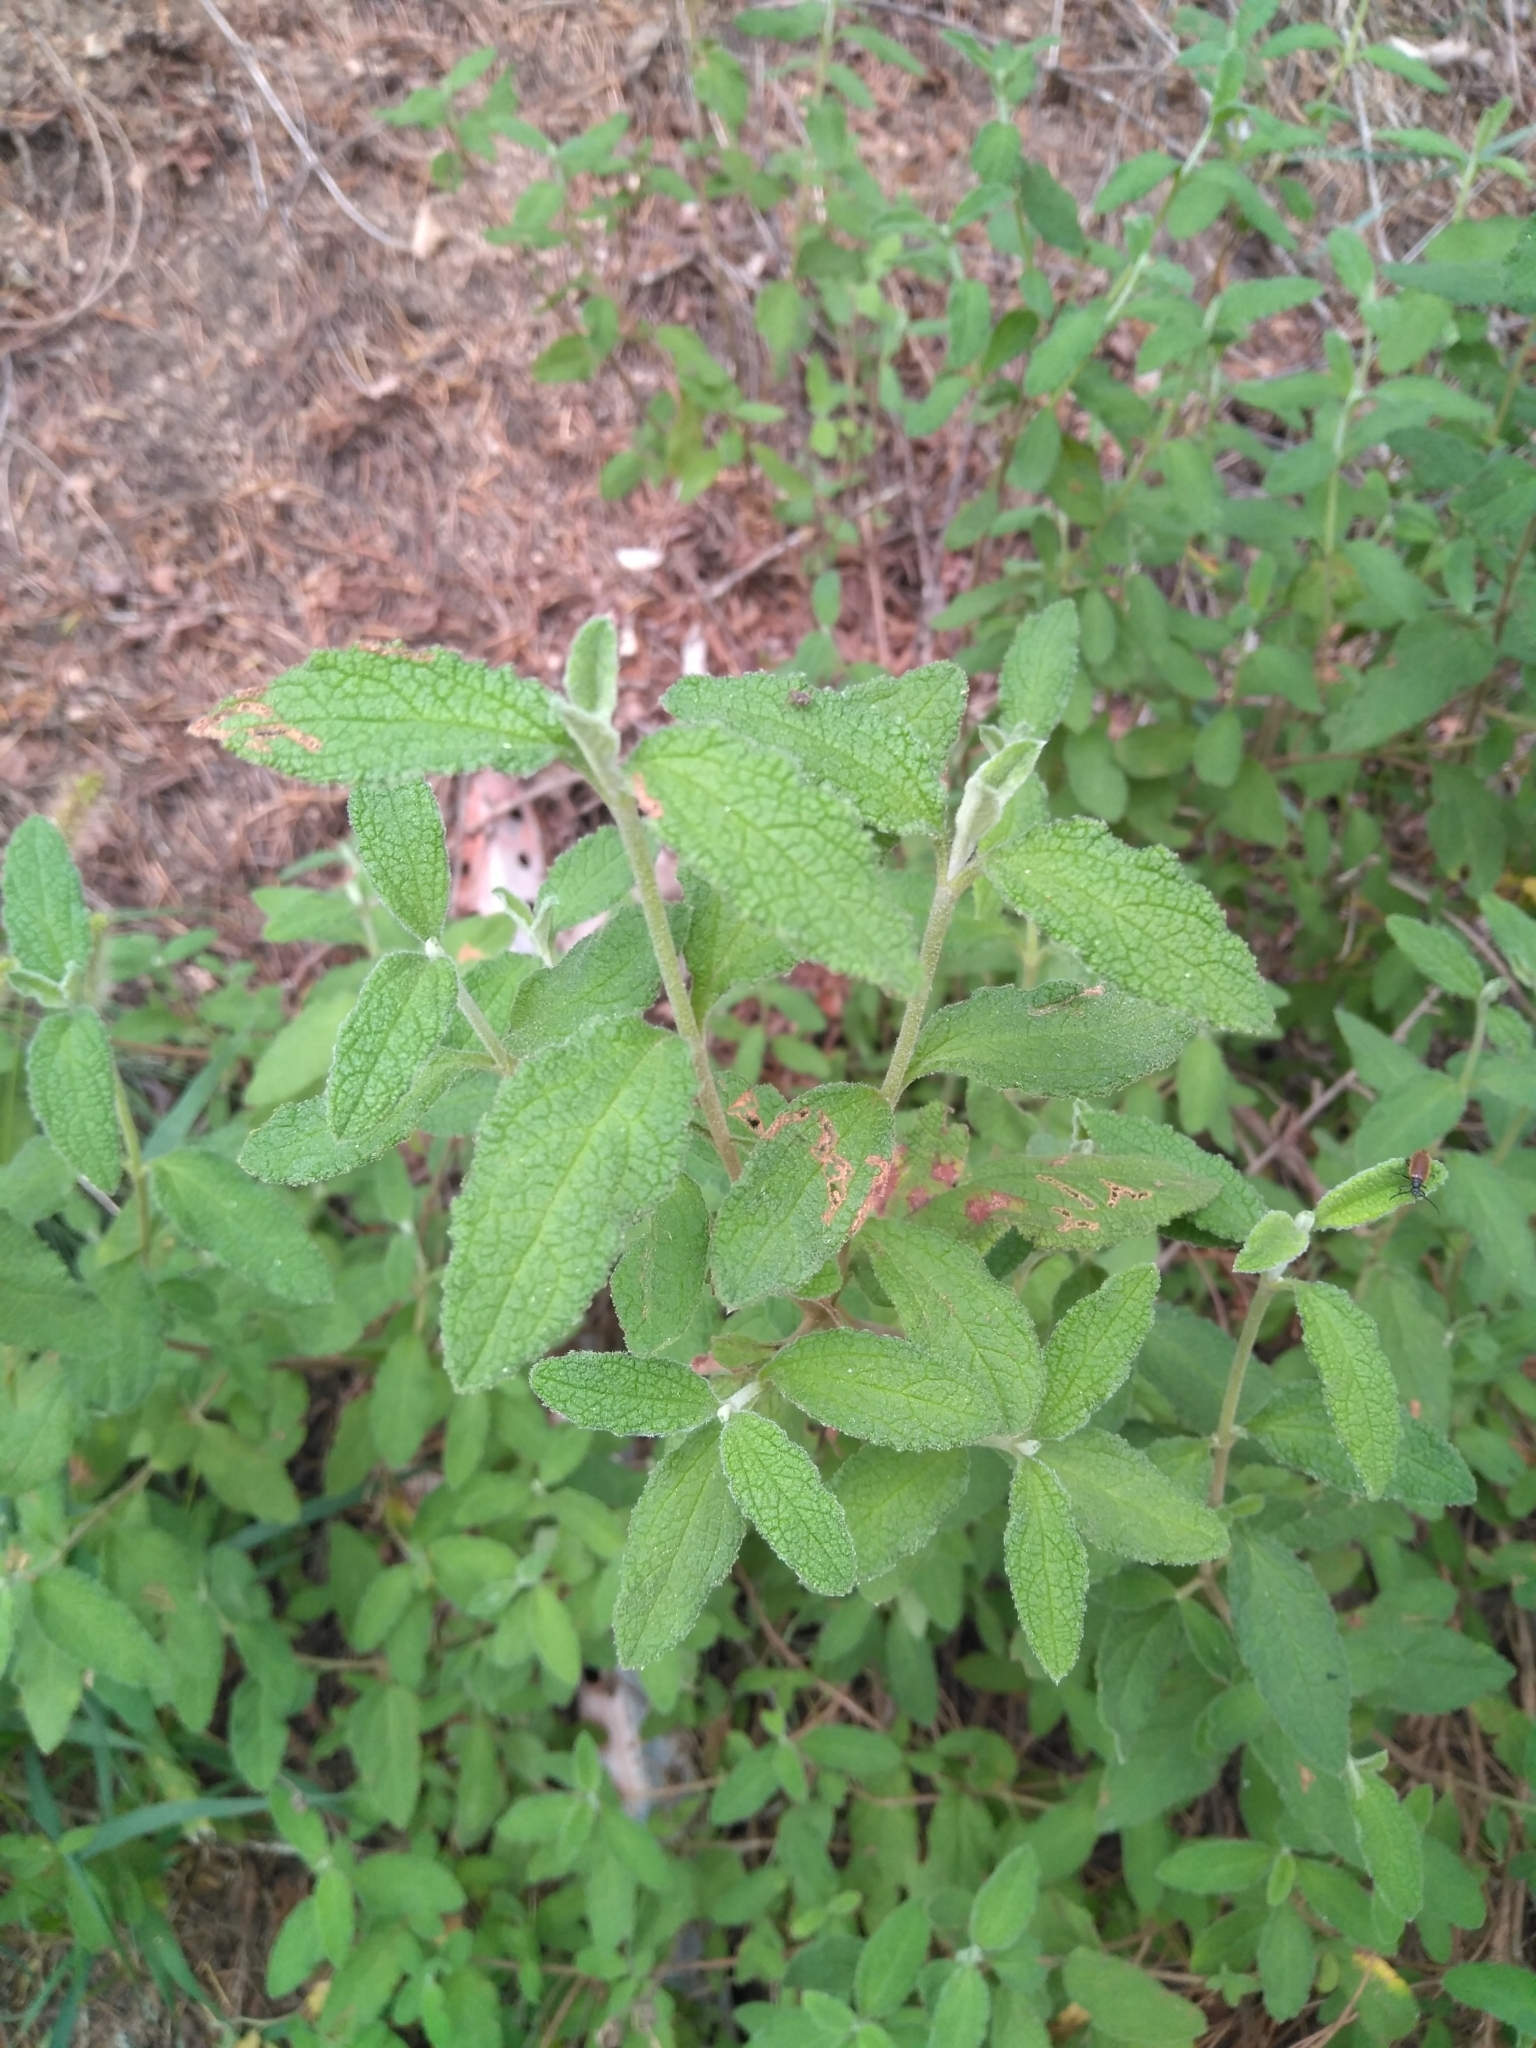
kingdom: Plantae
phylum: Tracheophyta
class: Magnoliopsida
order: Malvales
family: Cistaceae
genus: Cistus
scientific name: Cistus salviifolius
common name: Salvia cistus
